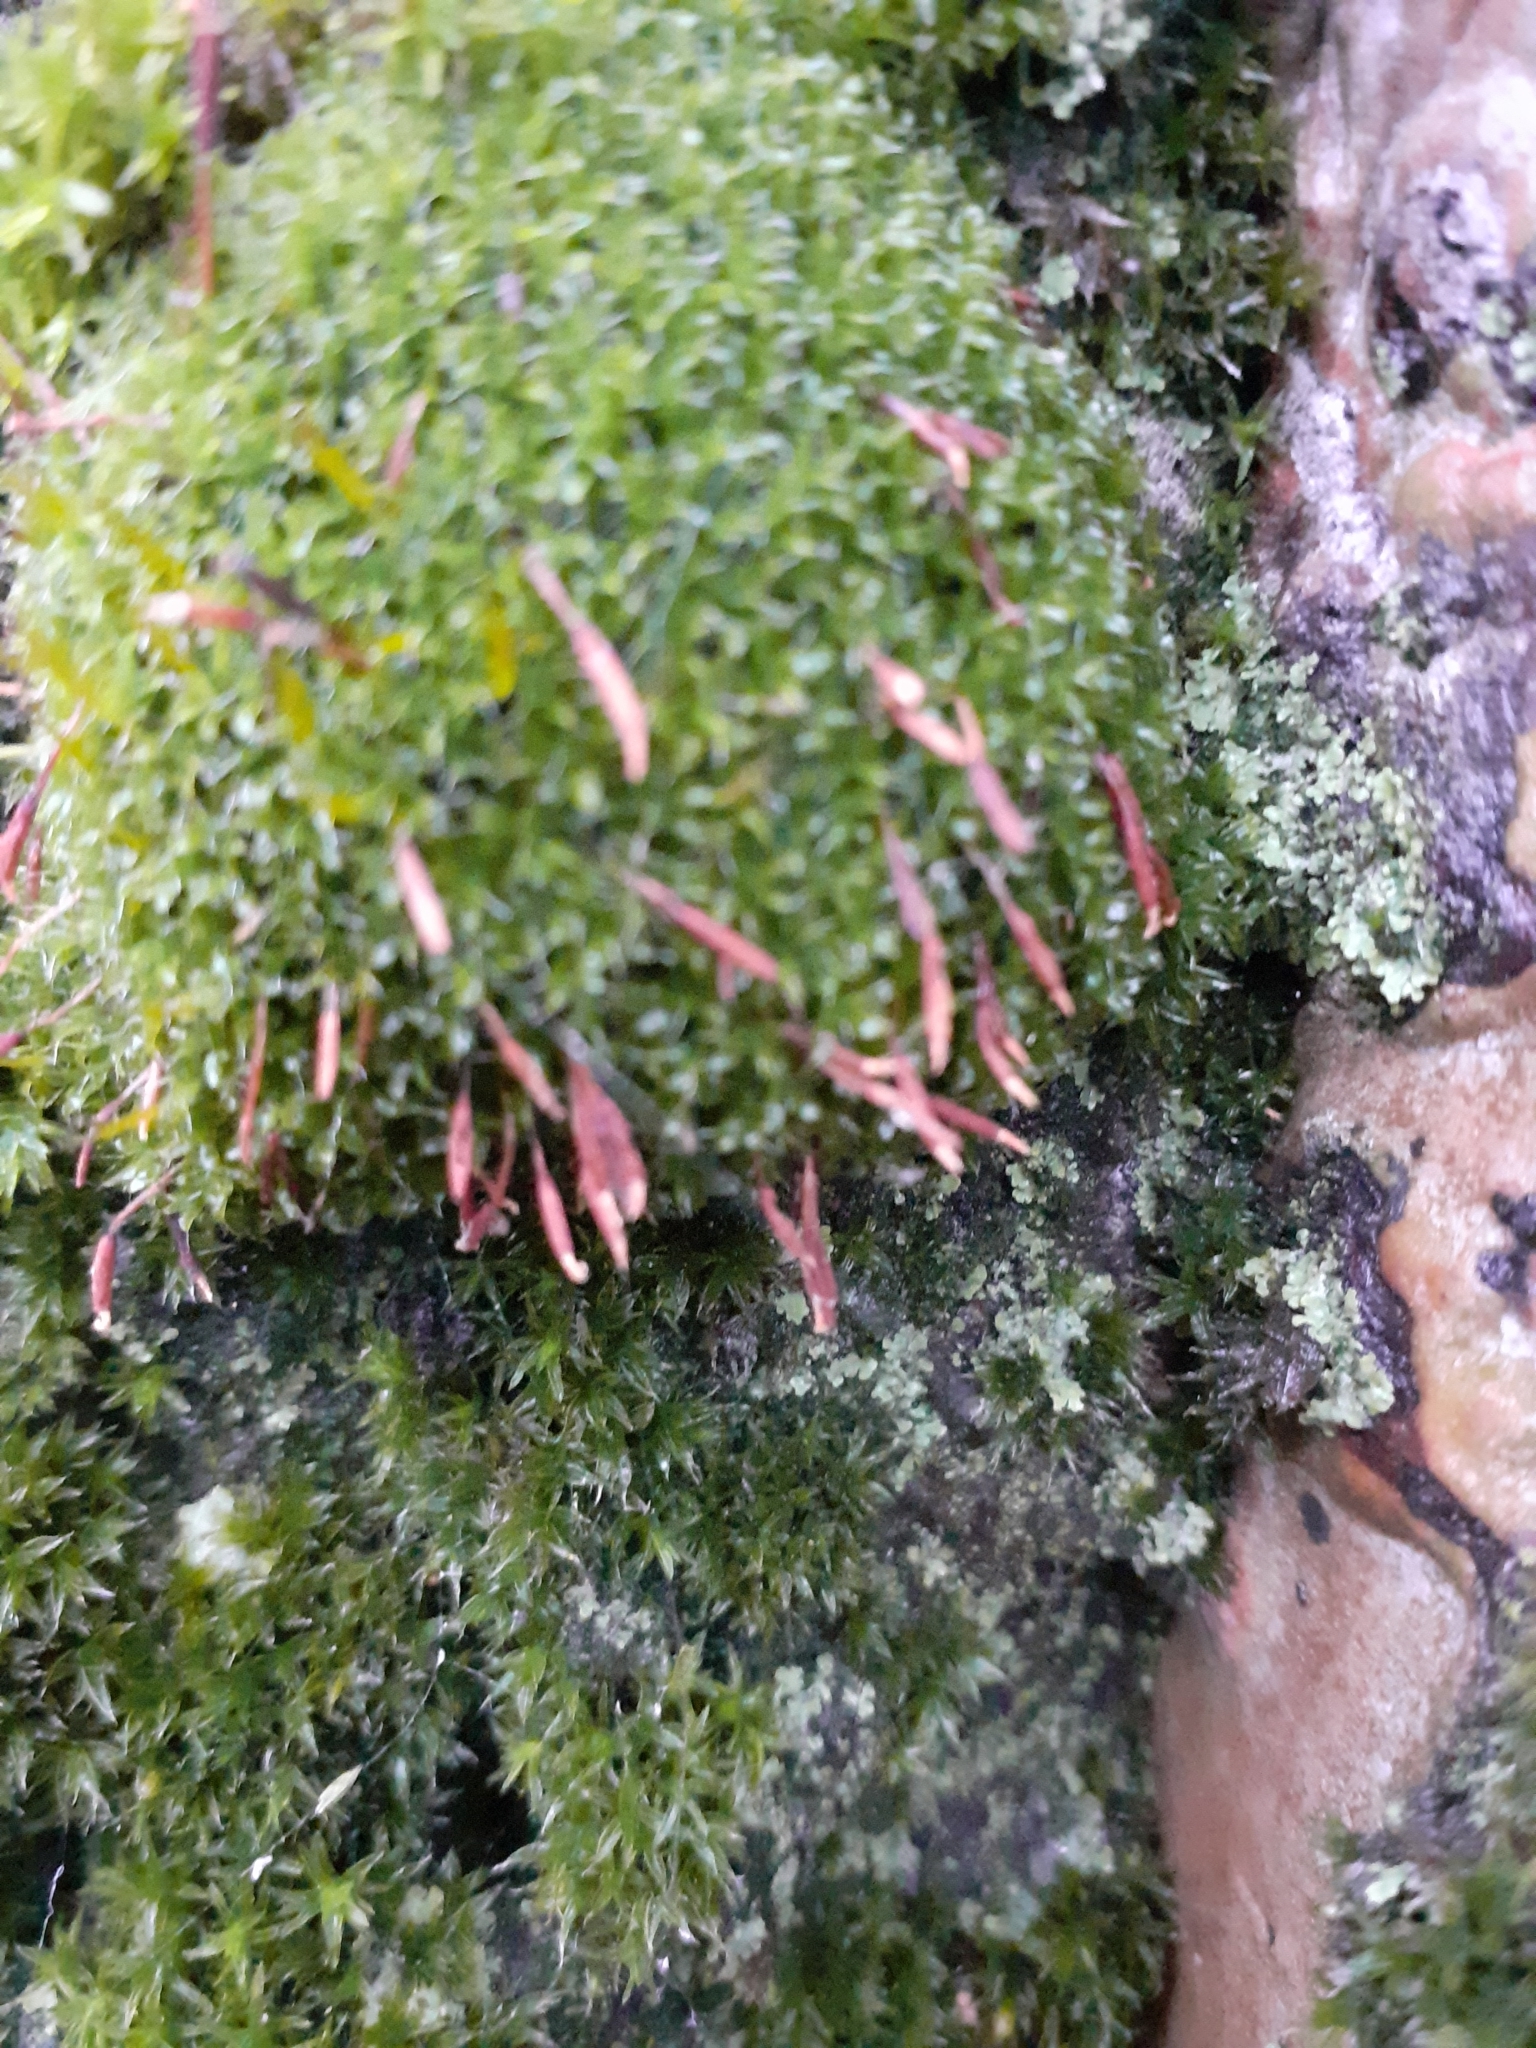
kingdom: Plantae
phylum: Bryophyta
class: Bryopsida
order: Pottiales
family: Pottiaceae
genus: Syntrichia
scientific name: Syntrichia montana
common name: Intermediate screw-moss
